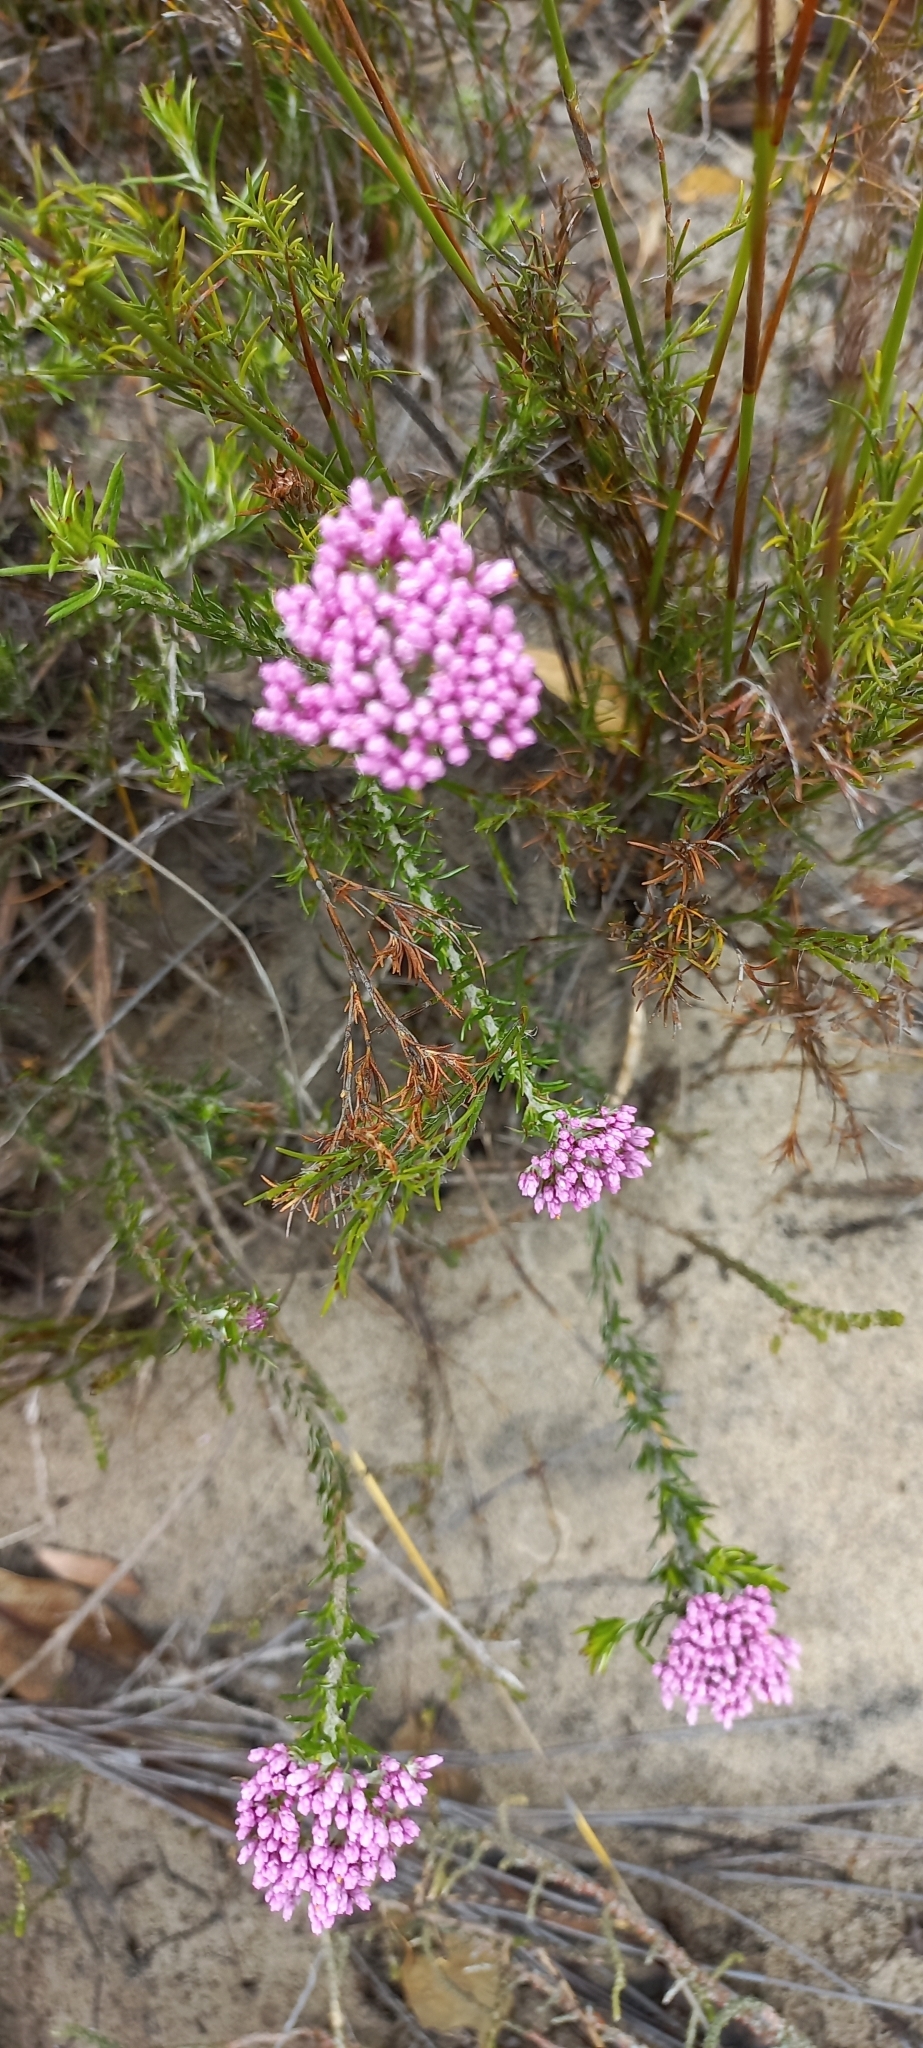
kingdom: Plantae
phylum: Tracheophyta
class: Magnoliopsida
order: Asterales
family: Asteraceae
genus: Metalasia
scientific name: Metalasia erubescens
